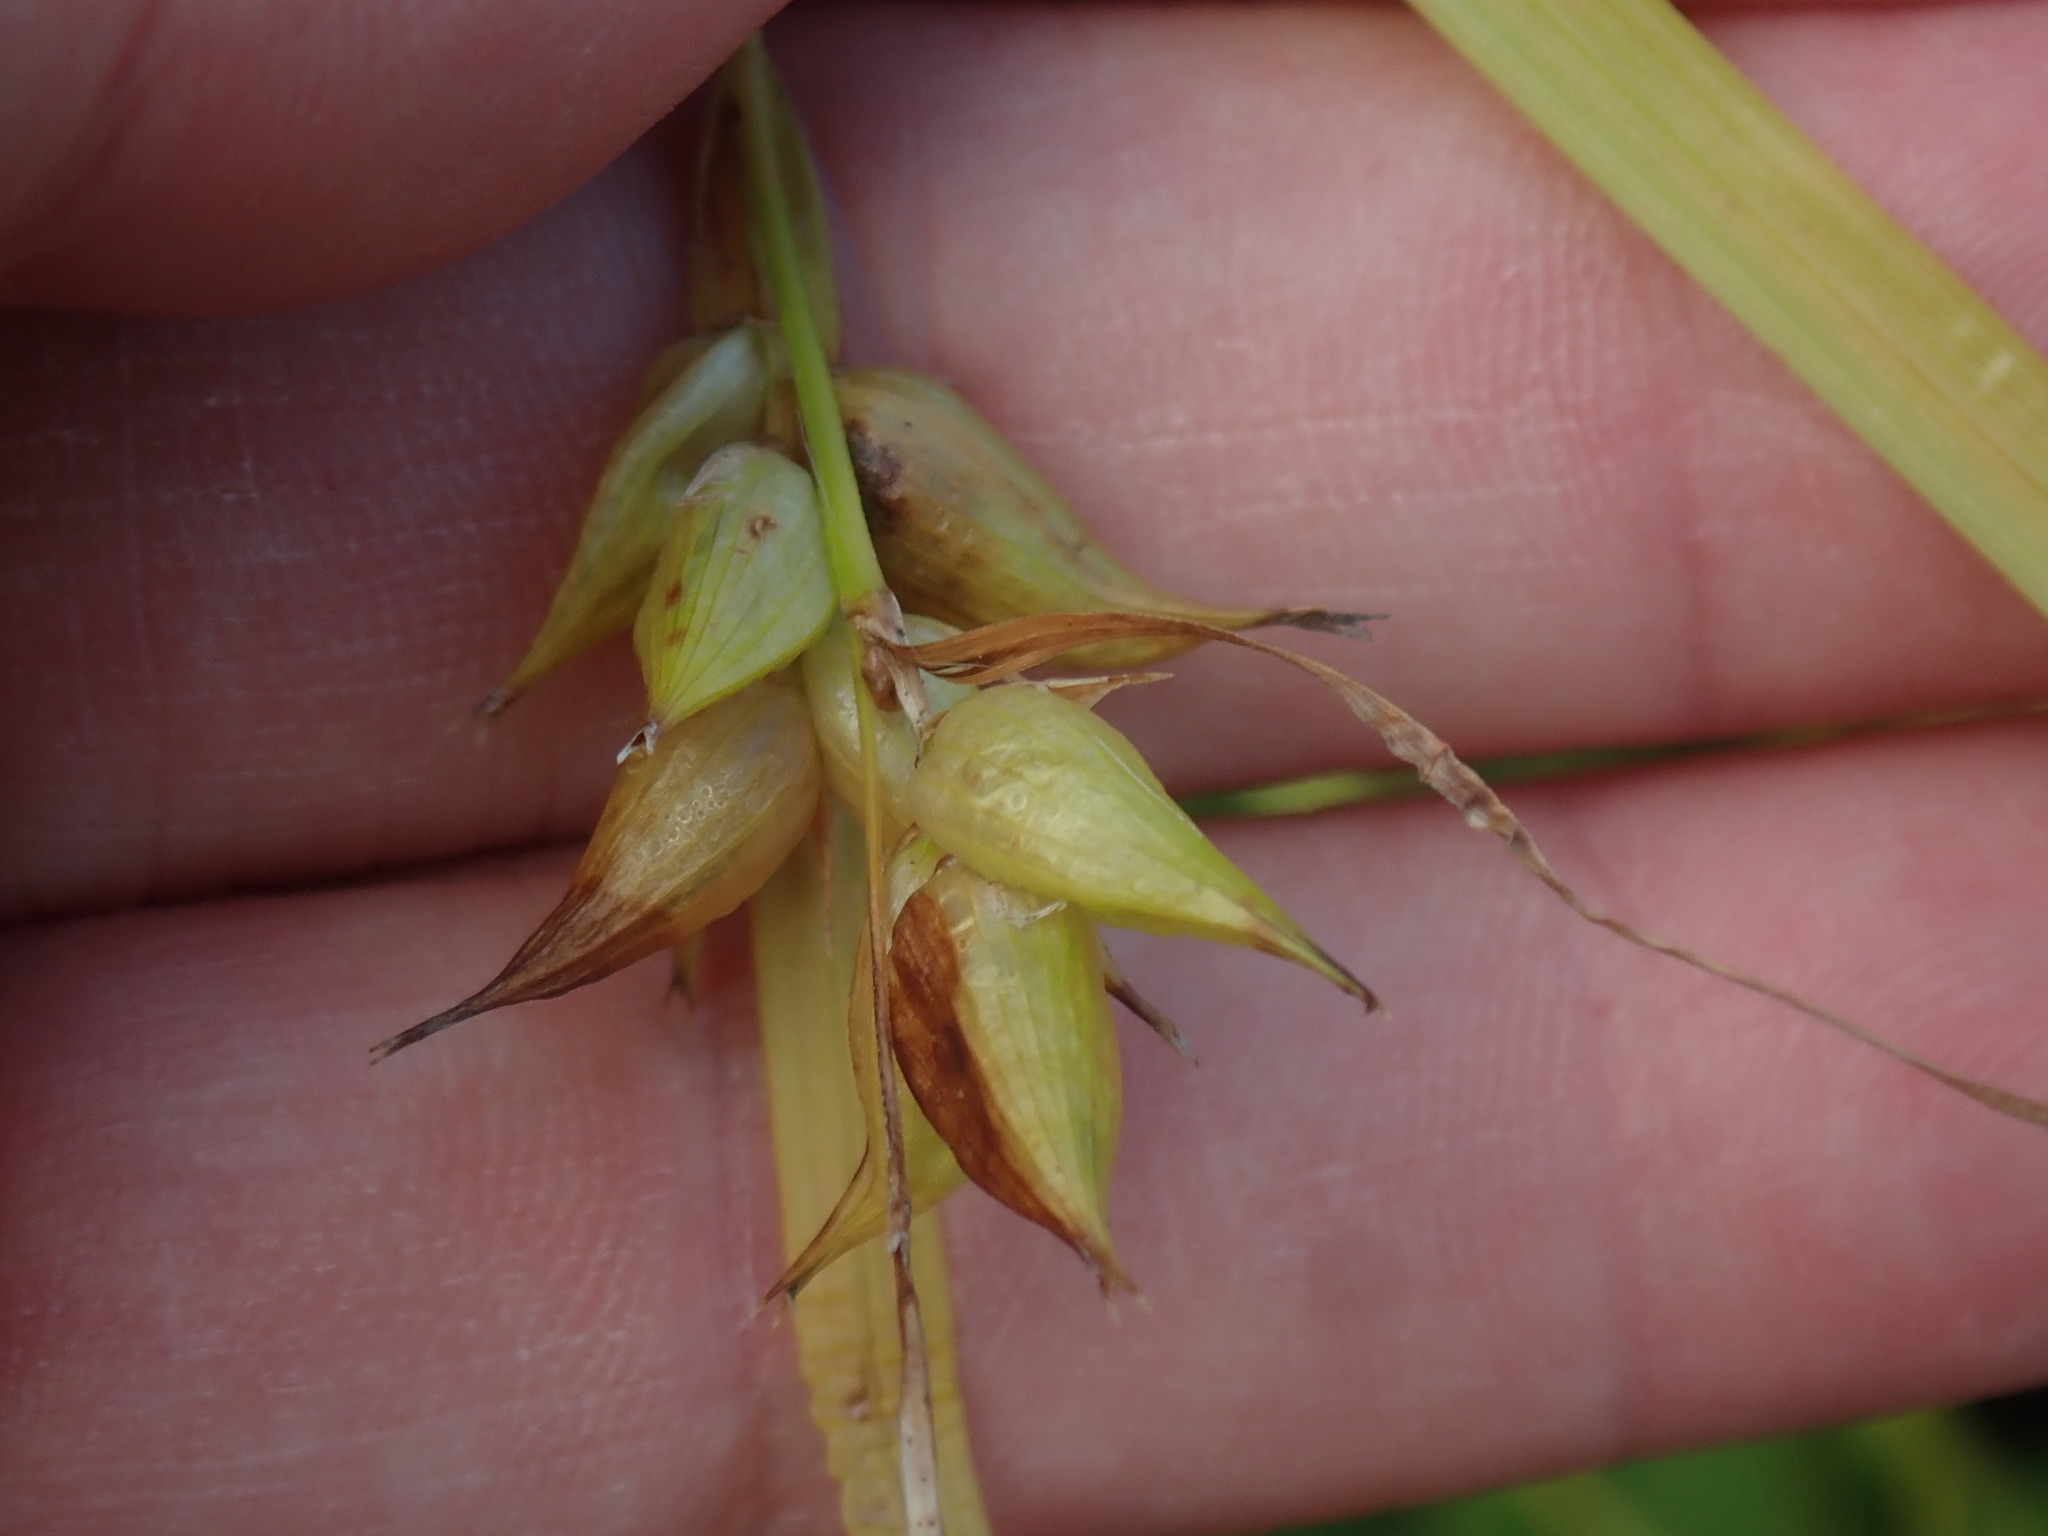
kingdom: Plantae
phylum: Tracheophyta
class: Liliopsida
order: Poales
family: Cyperaceae
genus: Carex
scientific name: Carex intumescens
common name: Greater bladder sedge
